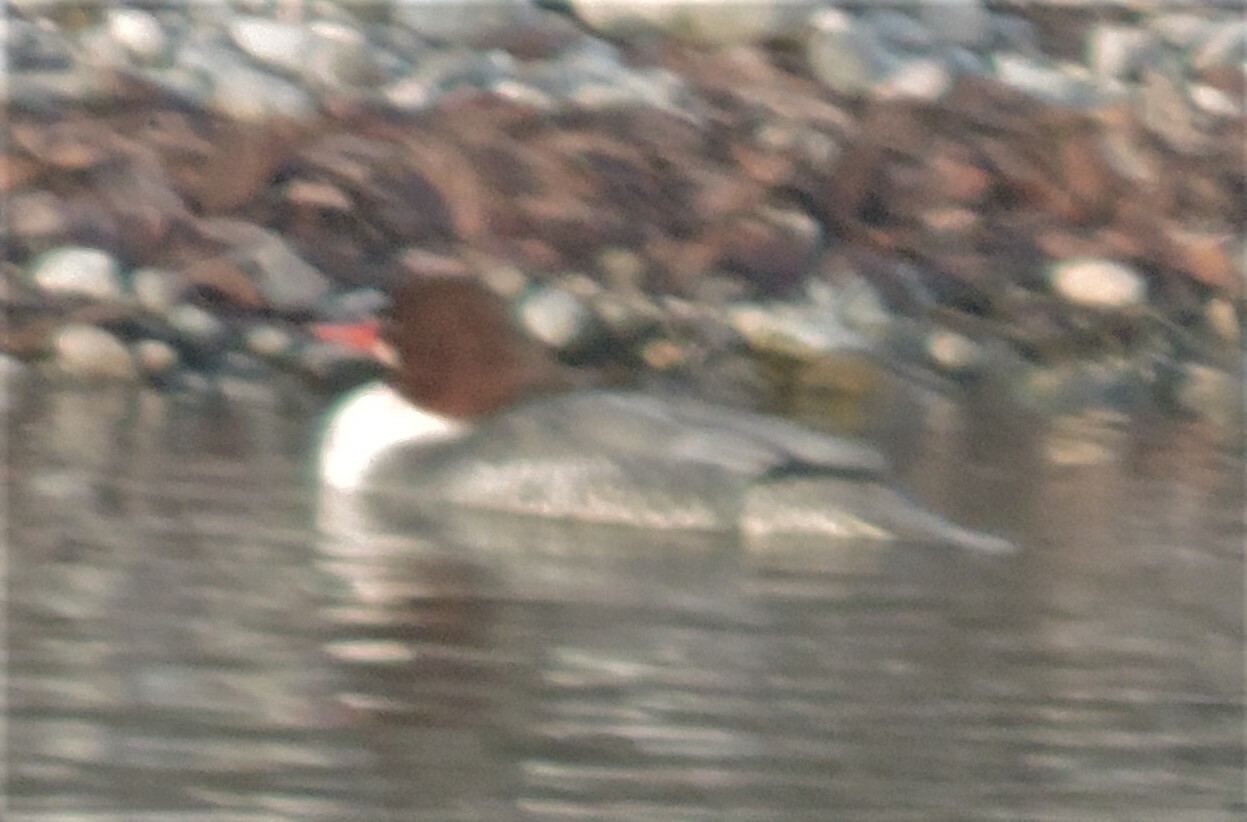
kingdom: Animalia
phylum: Chordata
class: Aves
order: Anseriformes
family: Anatidae
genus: Mergus
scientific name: Mergus merganser
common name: Common merganser
